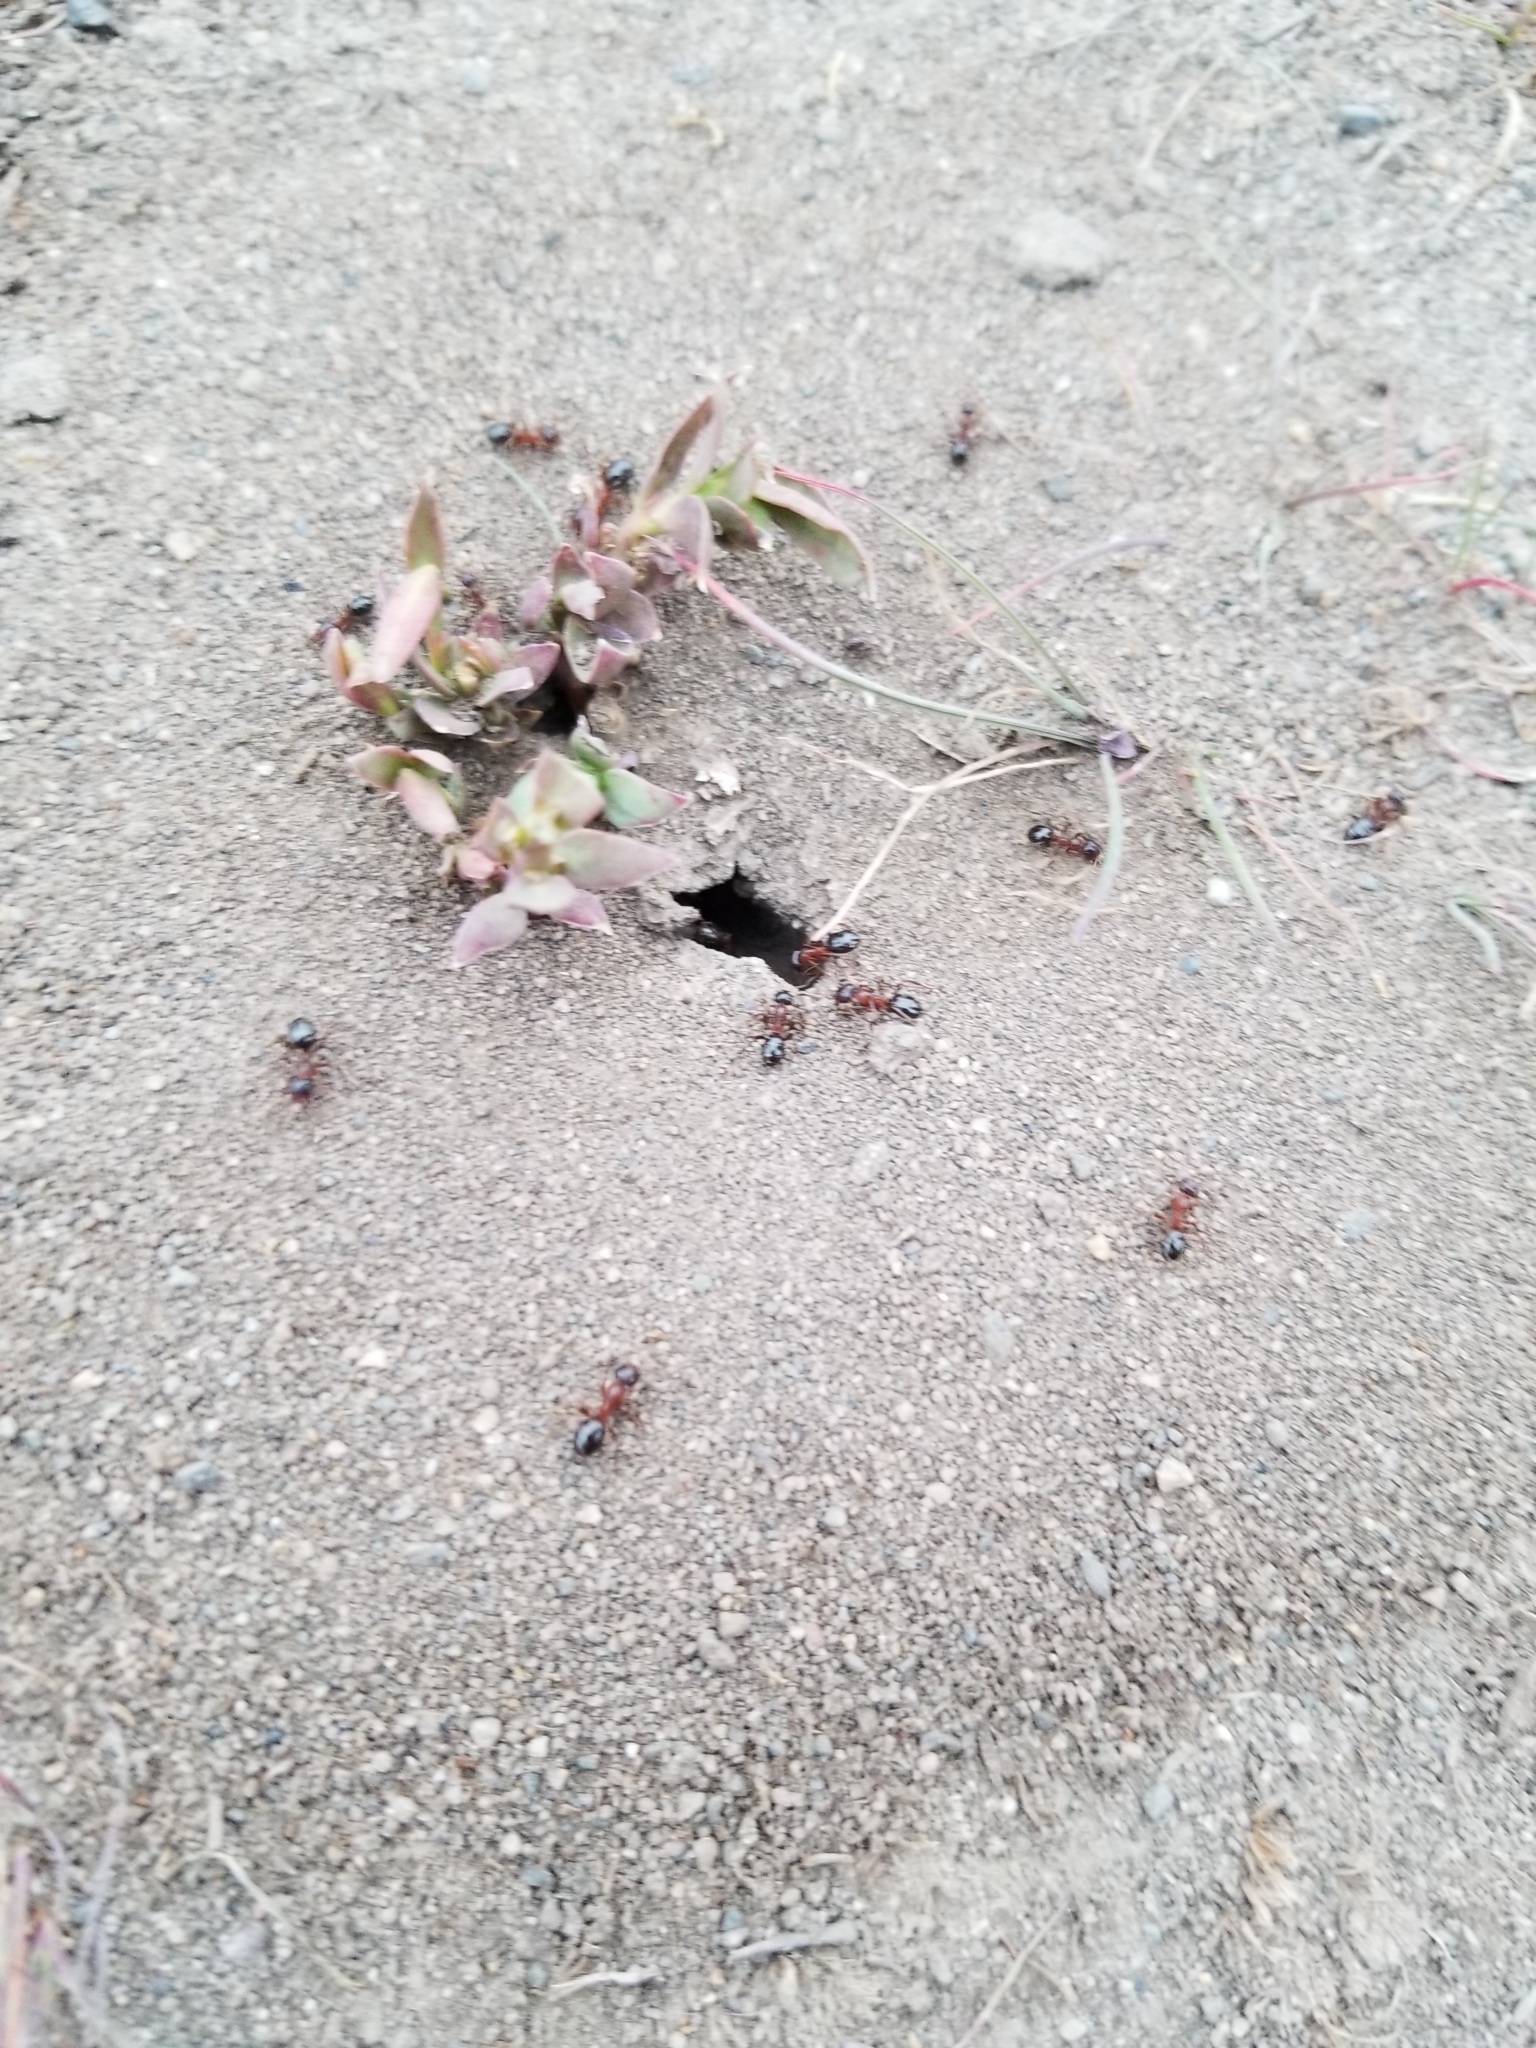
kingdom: Animalia
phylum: Arthropoda
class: Insecta
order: Hymenoptera
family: Formicidae
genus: Camponotus
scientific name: Camponotus vicinus
